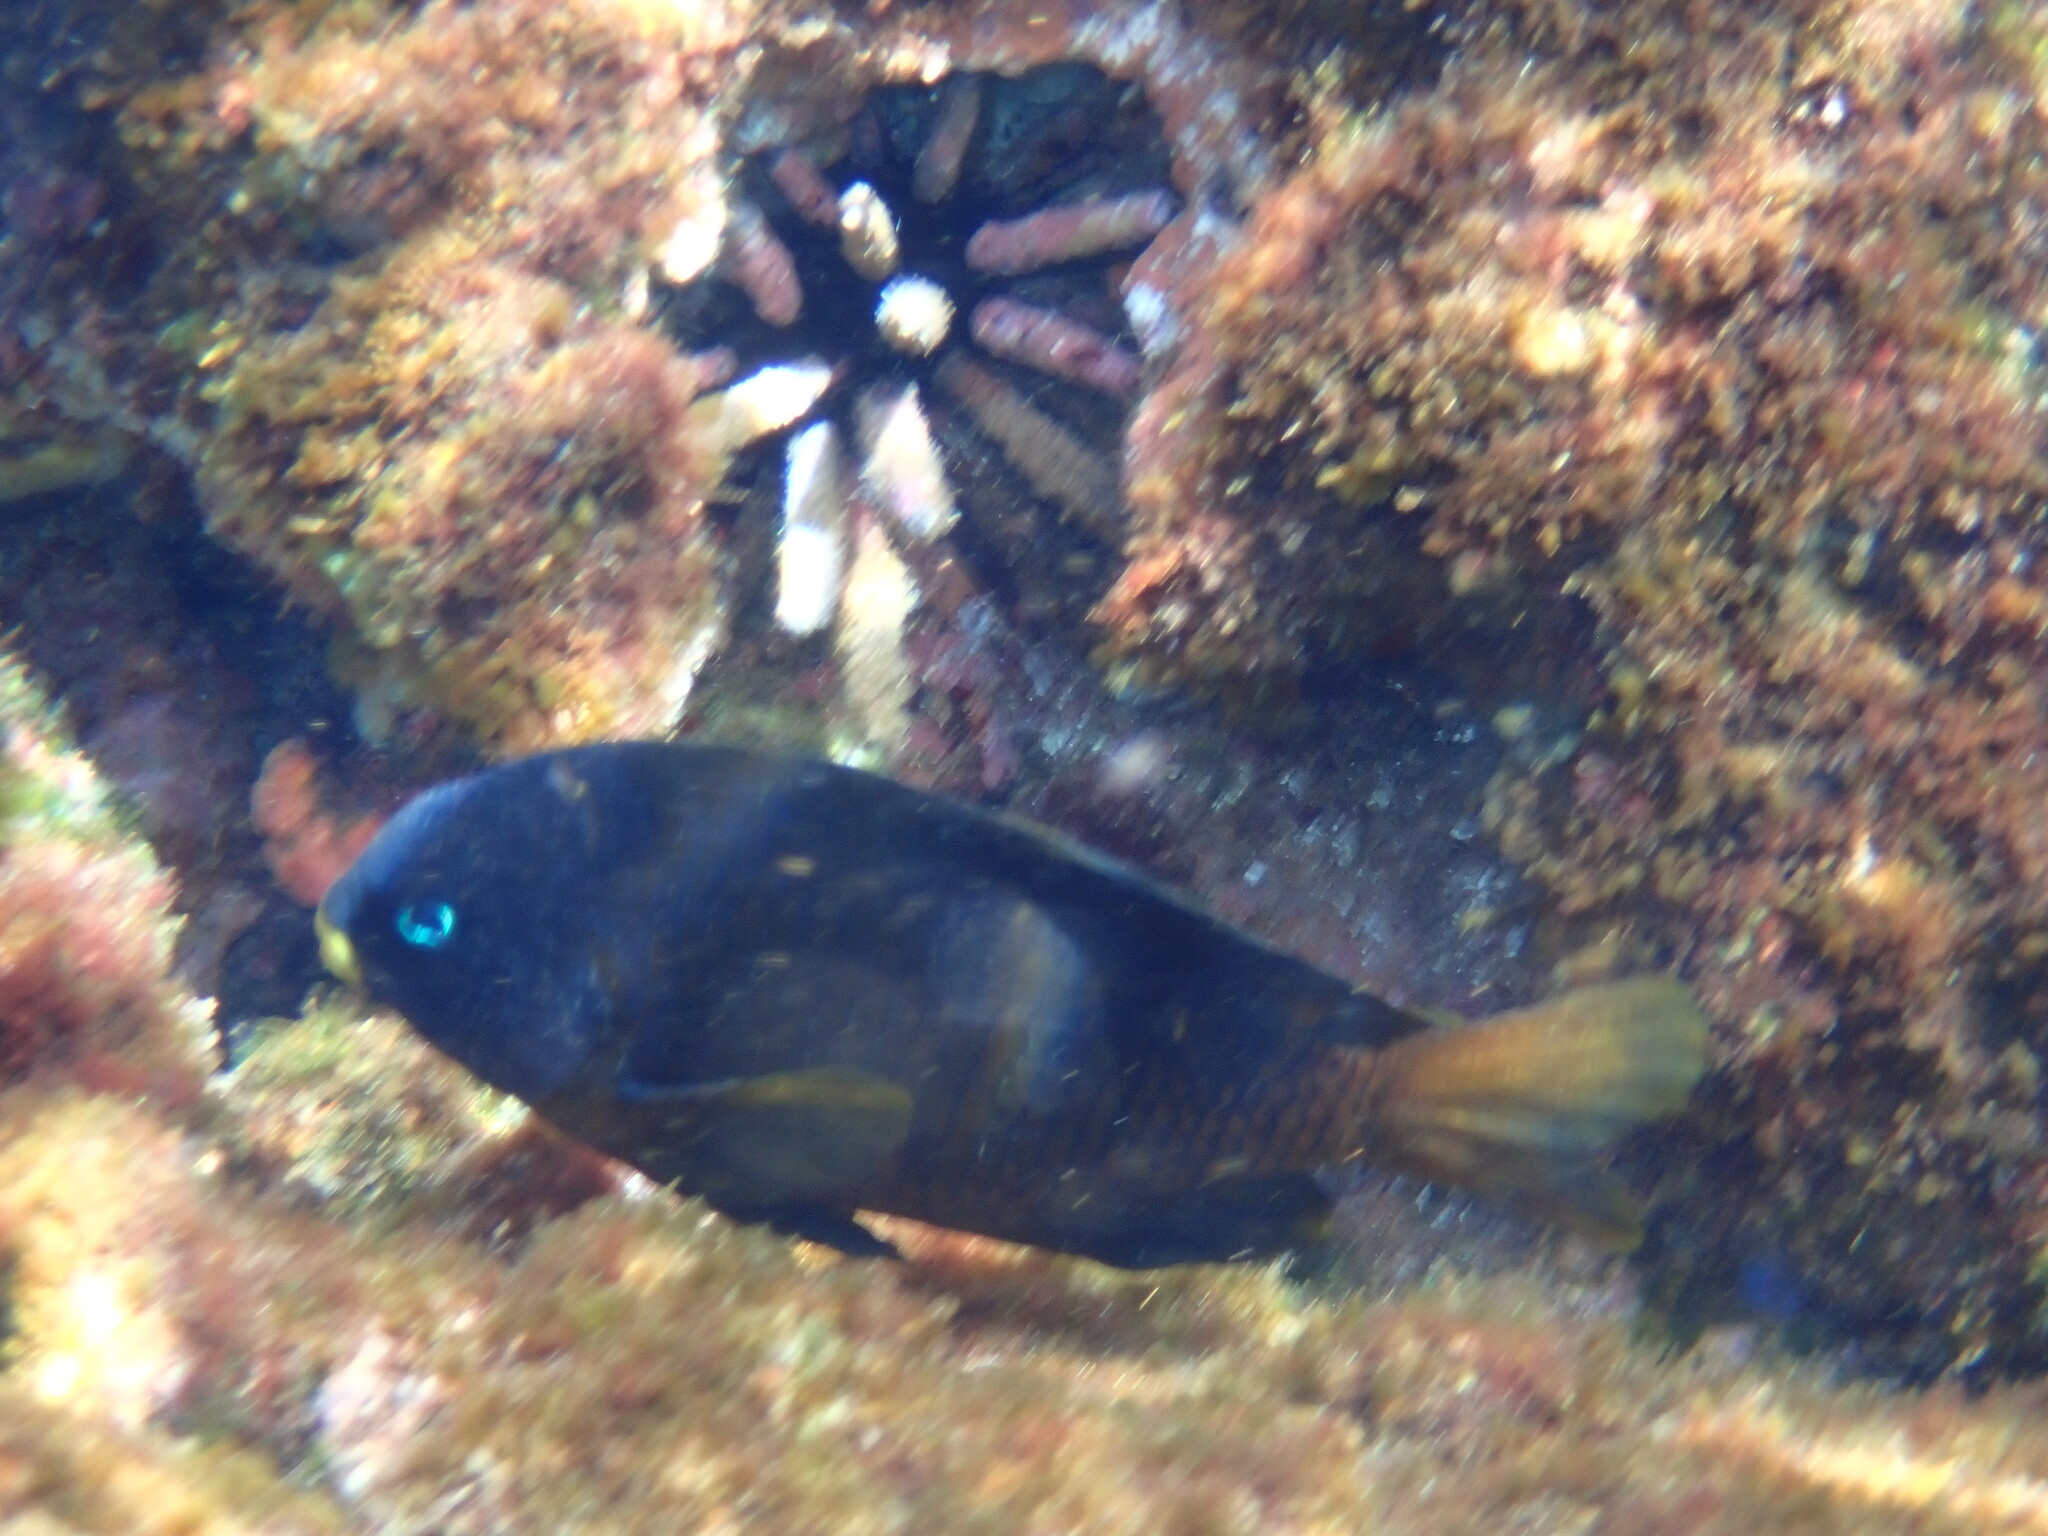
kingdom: Animalia
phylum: Chordata
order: Perciformes
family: Pomacentridae
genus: Stegastes
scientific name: Stegastes arcifrons
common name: Galapagos gregory
